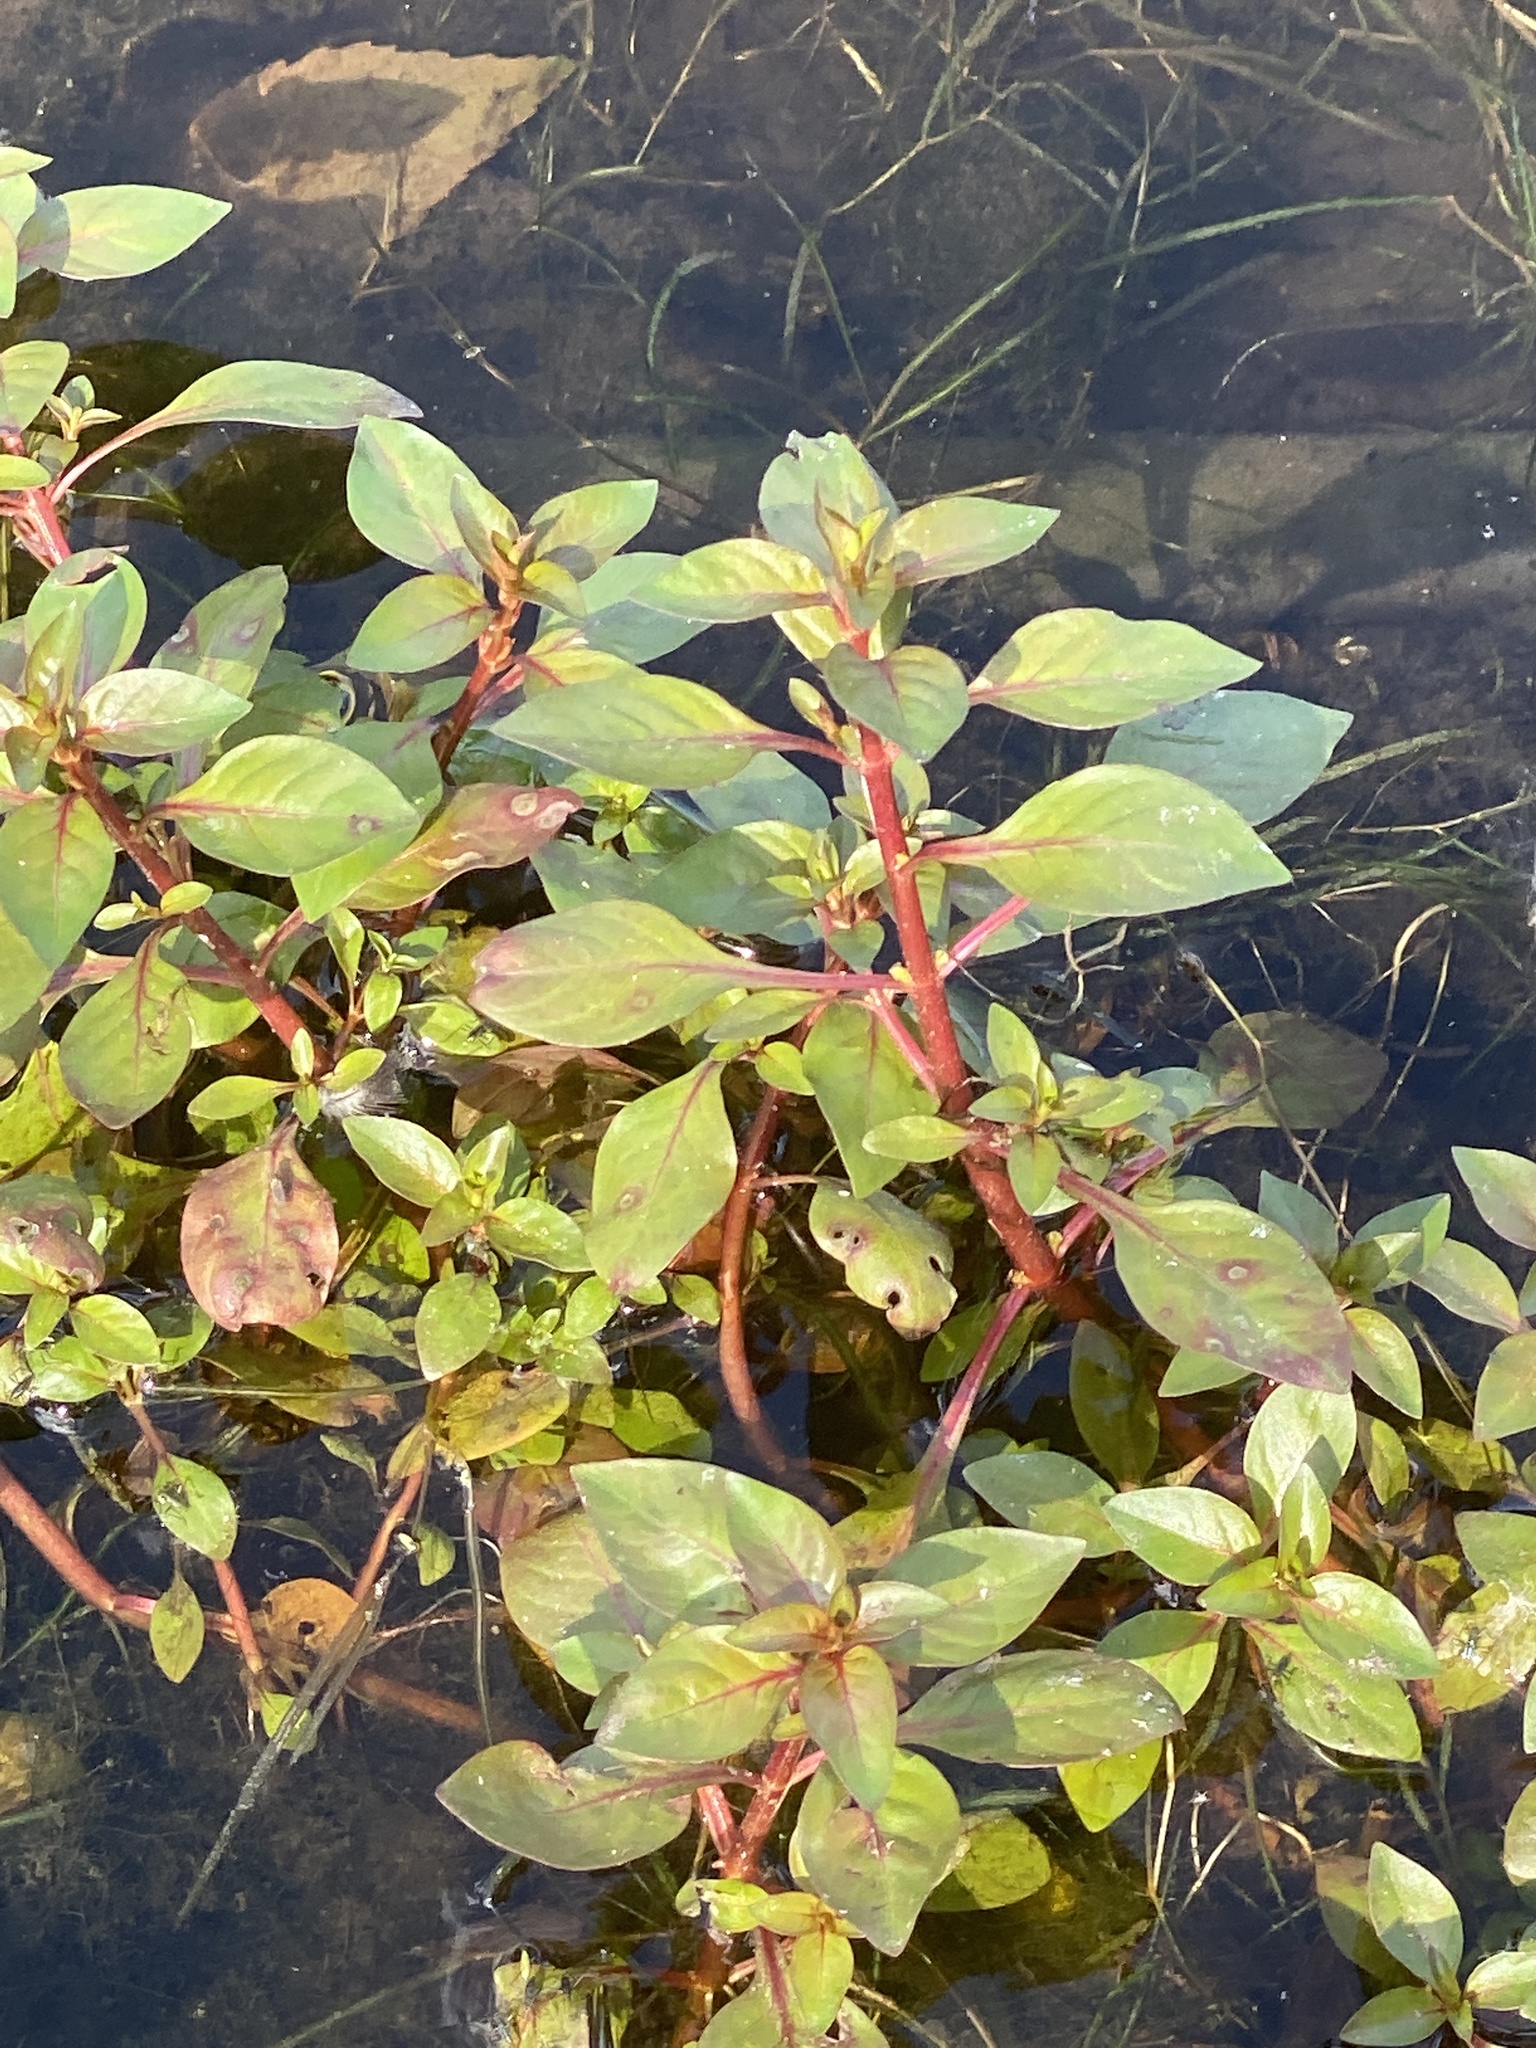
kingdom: Plantae
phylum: Tracheophyta
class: Magnoliopsida
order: Myrtales
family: Onagraceae
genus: Ludwigia
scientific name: Ludwigia palustris
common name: Hampshire-purslane
